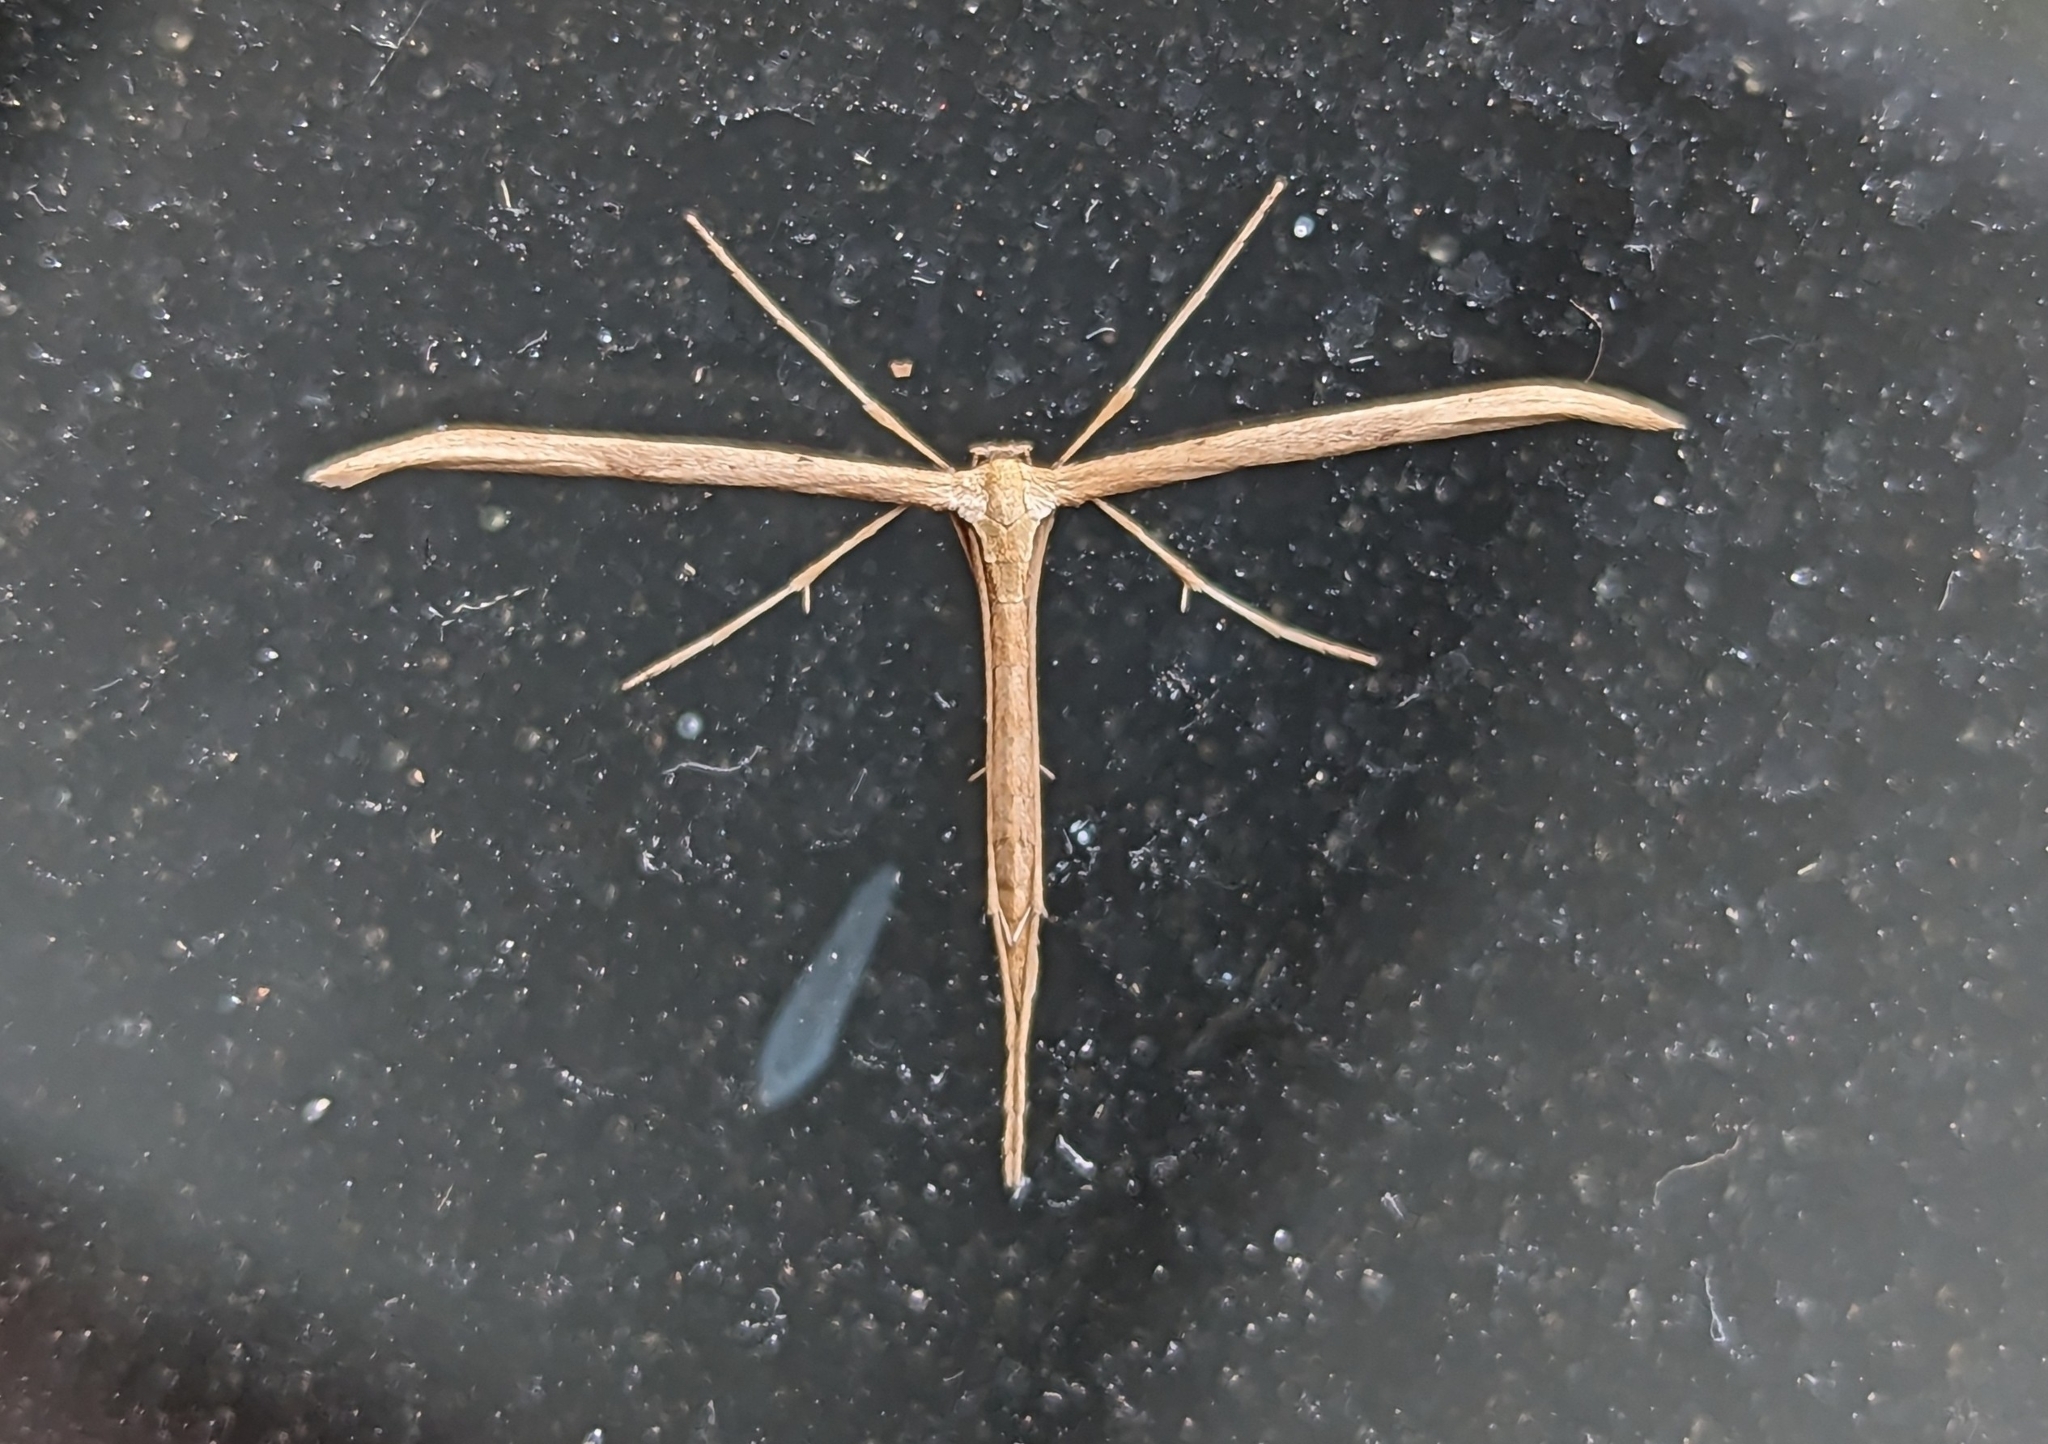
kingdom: Animalia
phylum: Arthropoda
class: Insecta
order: Lepidoptera
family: Pterophoridae
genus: Emmelina
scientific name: Emmelina monodactyla
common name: Common plume
